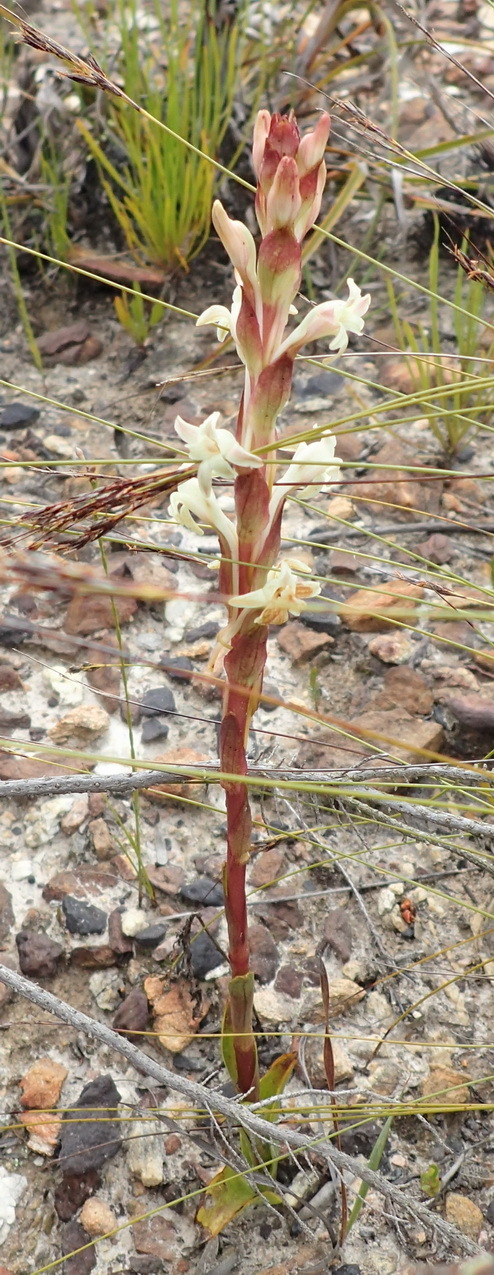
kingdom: Plantae
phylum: Tracheophyta
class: Liliopsida
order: Asparagales
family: Orchidaceae
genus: Satyrium
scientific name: Satyrium stenopetalum
